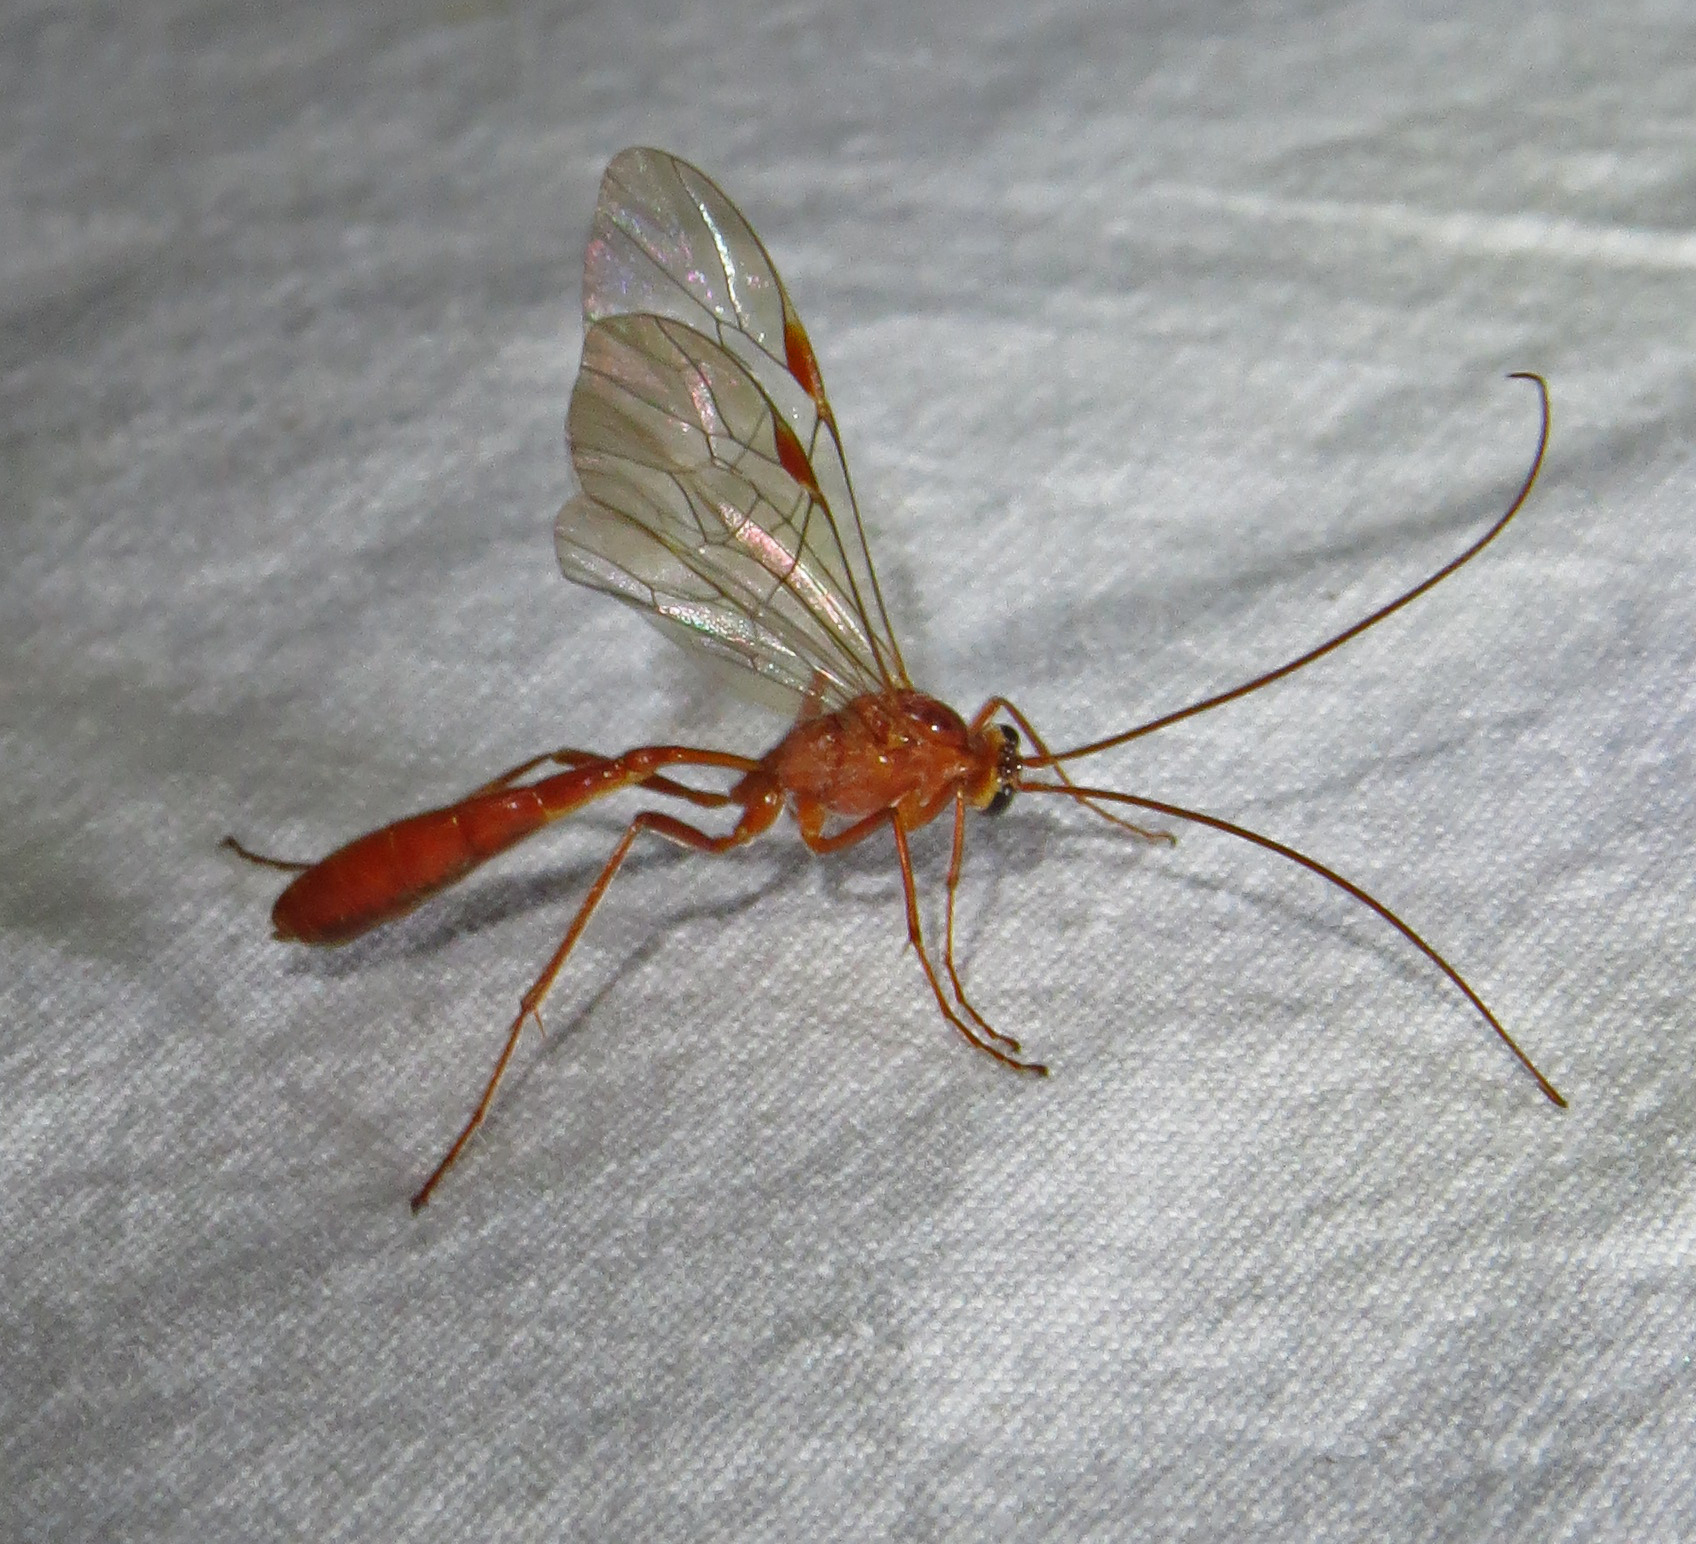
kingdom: Animalia
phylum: Arthropoda
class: Insecta
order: Hymenoptera
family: Ichneumonidae
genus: Ophion
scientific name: Ophion
